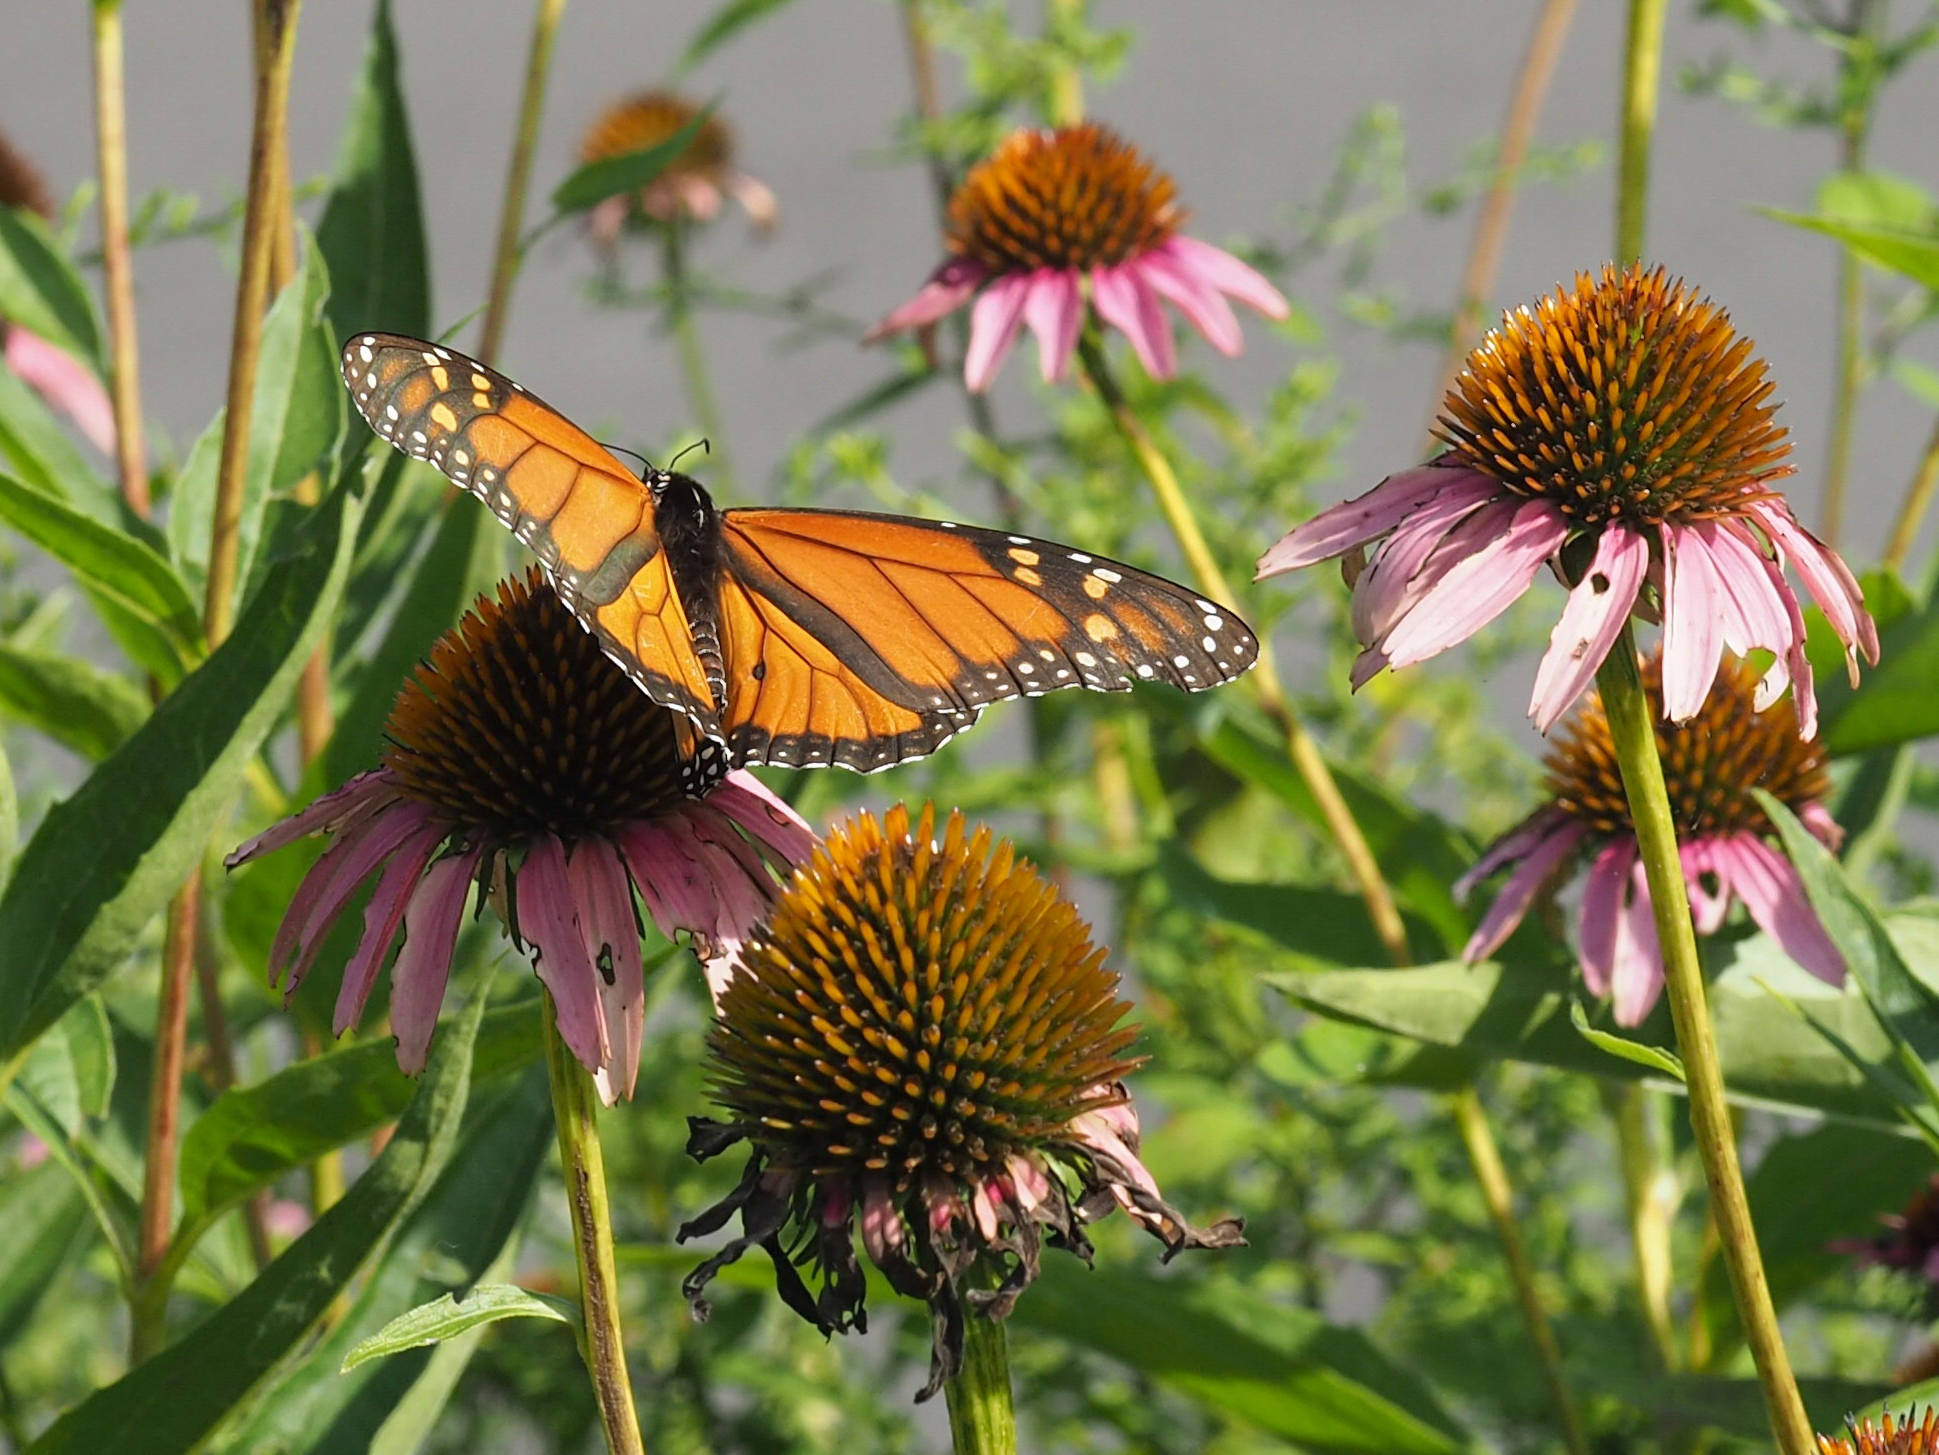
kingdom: Animalia
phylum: Arthropoda
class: Insecta
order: Lepidoptera
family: Nymphalidae
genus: Danaus
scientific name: Danaus plexippus
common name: Monarch
